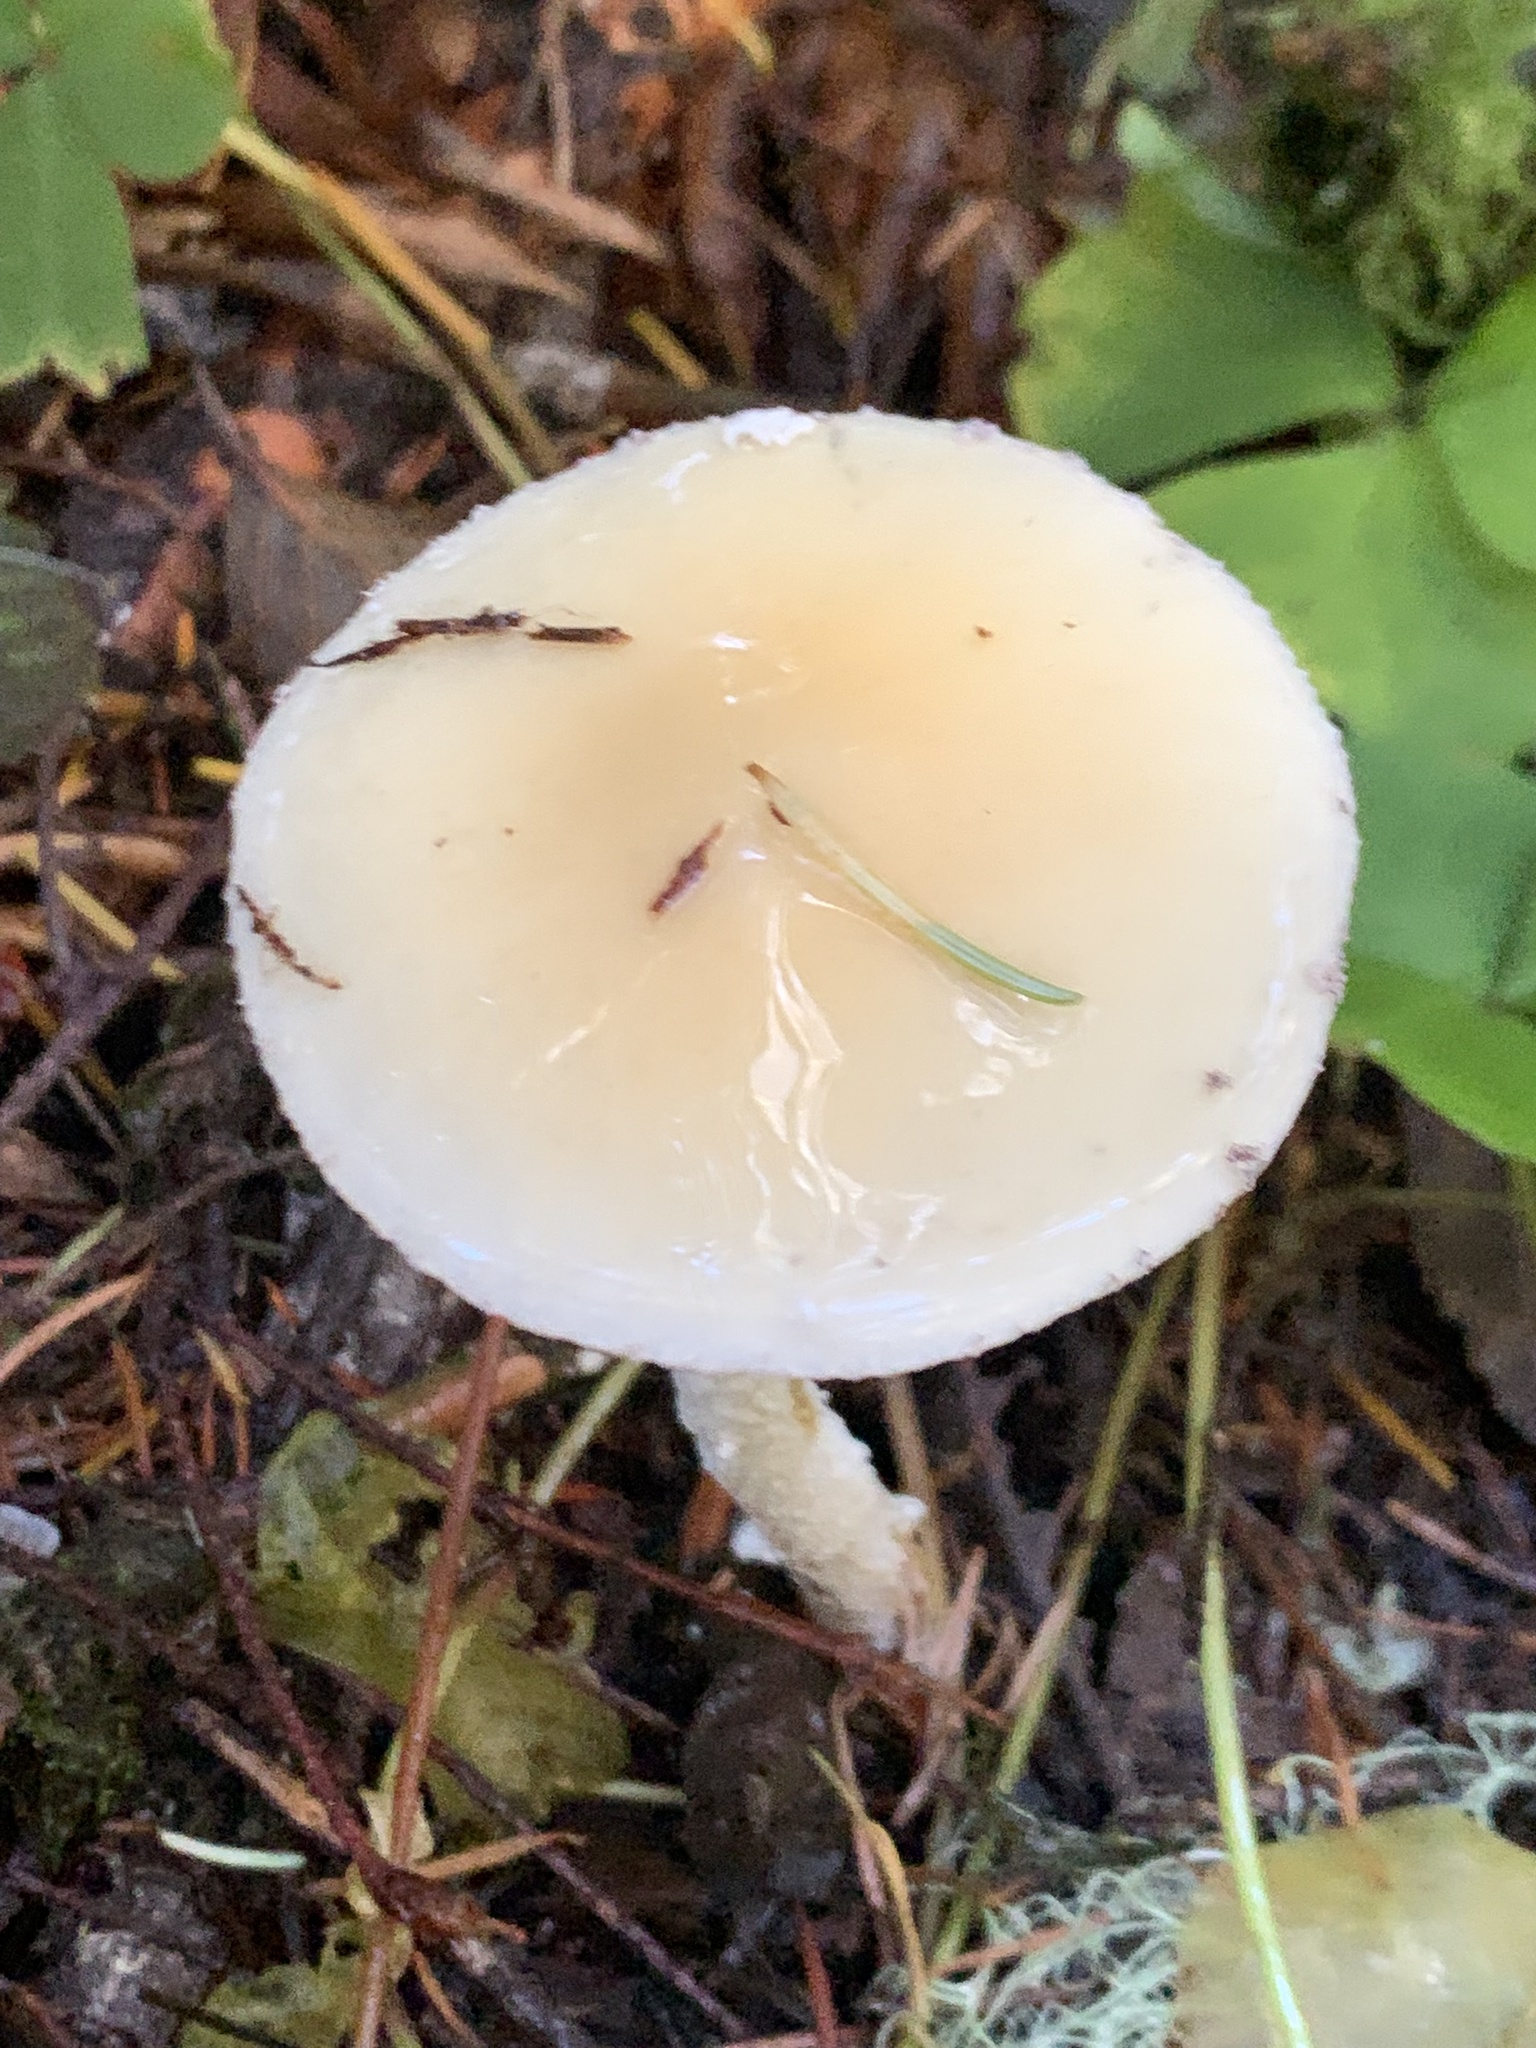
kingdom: Fungi
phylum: Basidiomycota
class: Agaricomycetes
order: Agaricales
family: Strophariaceae
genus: Stropharia
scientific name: Stropharia ambigua
